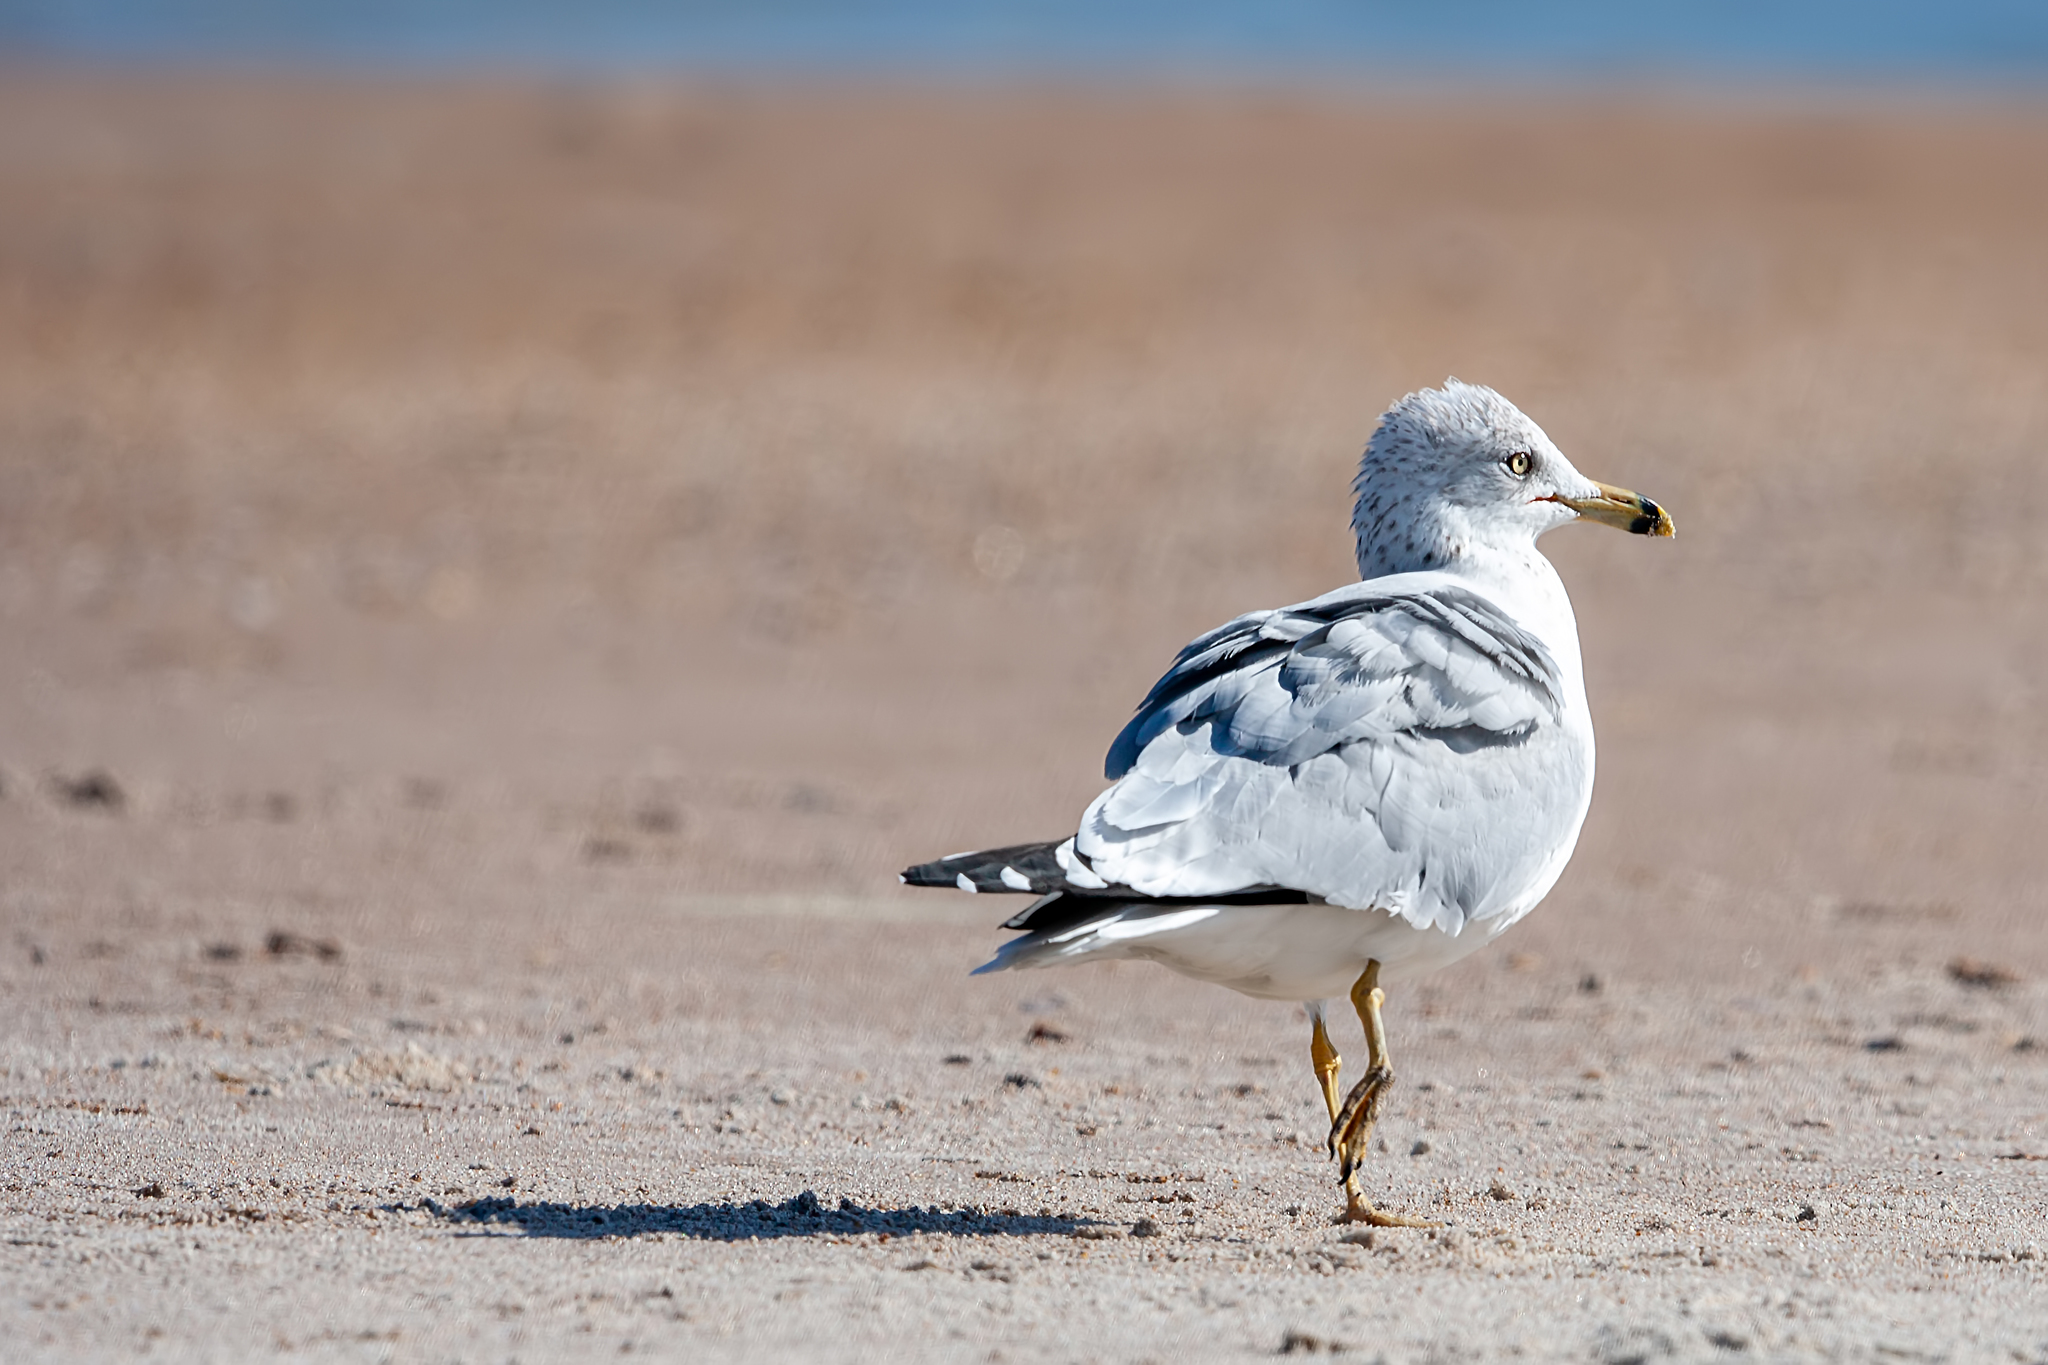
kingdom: Animalia
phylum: Chordata
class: Aves
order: Charadriiformes
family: Laridae
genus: Larus
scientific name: Larus delawarensis
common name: Ring-billed gull
